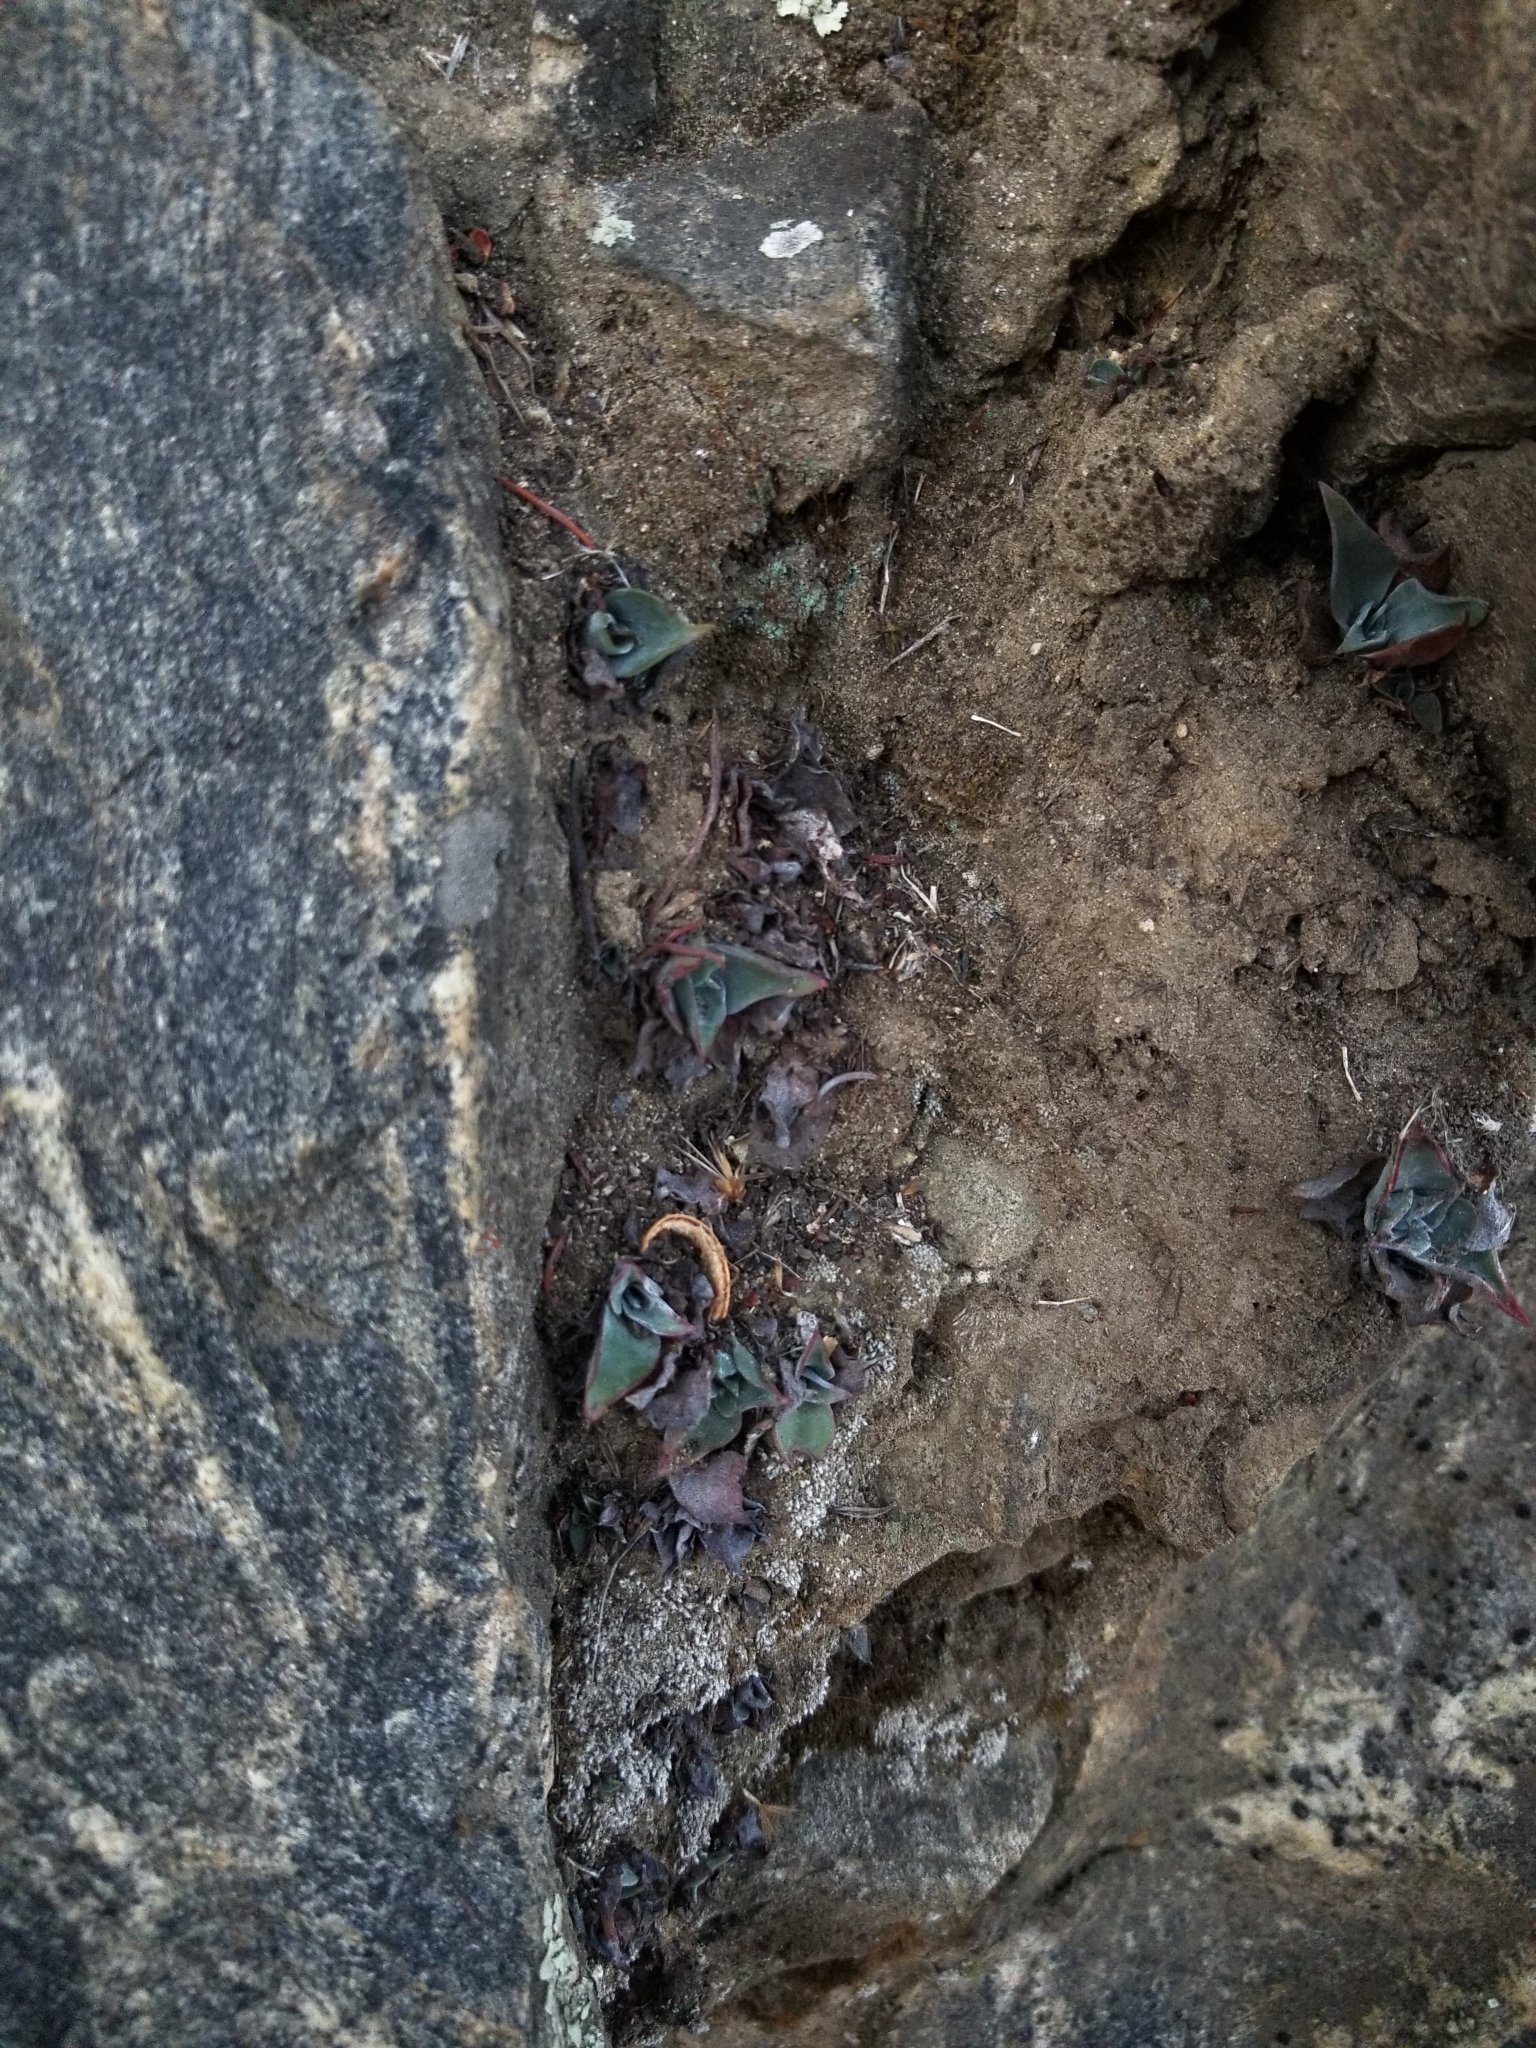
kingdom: Plantae
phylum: Tracheophyta
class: Magnoliopsida
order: Saxifragales
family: Crassulaceae
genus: Dudleya
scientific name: Dudleya pulverulenta
